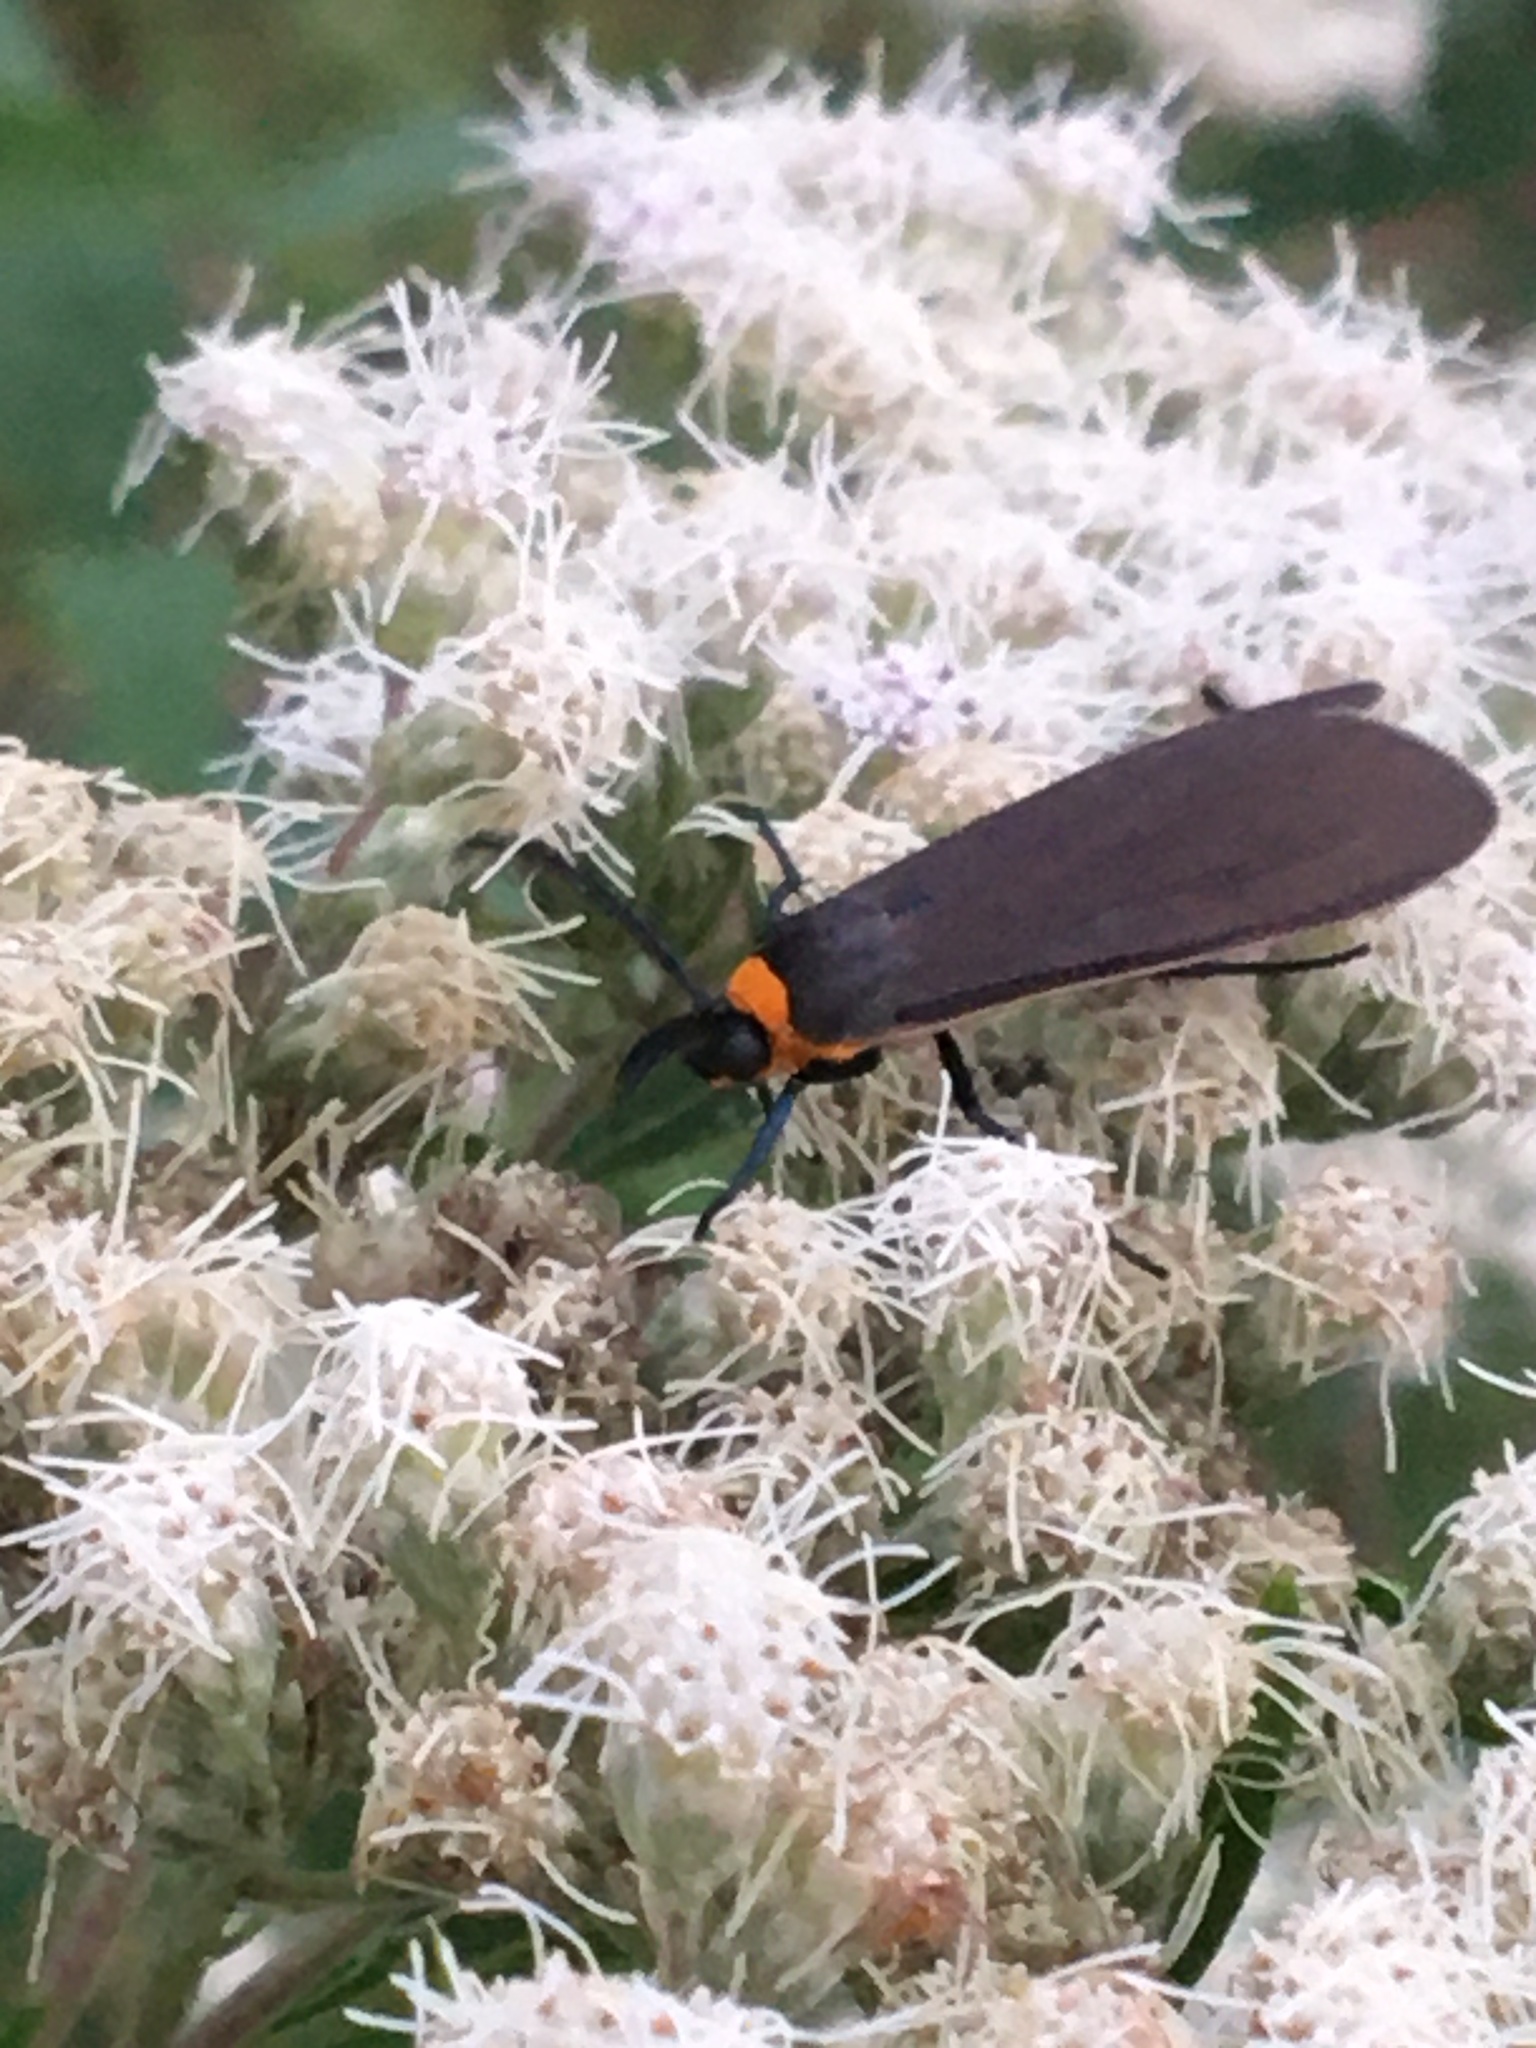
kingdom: Animalia
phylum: Arthropoda
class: Insecta
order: Lepidoptera
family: Erebidae
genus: Cisseps
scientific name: Cisseps fulvicollis
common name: Yellow-collared scape moth
